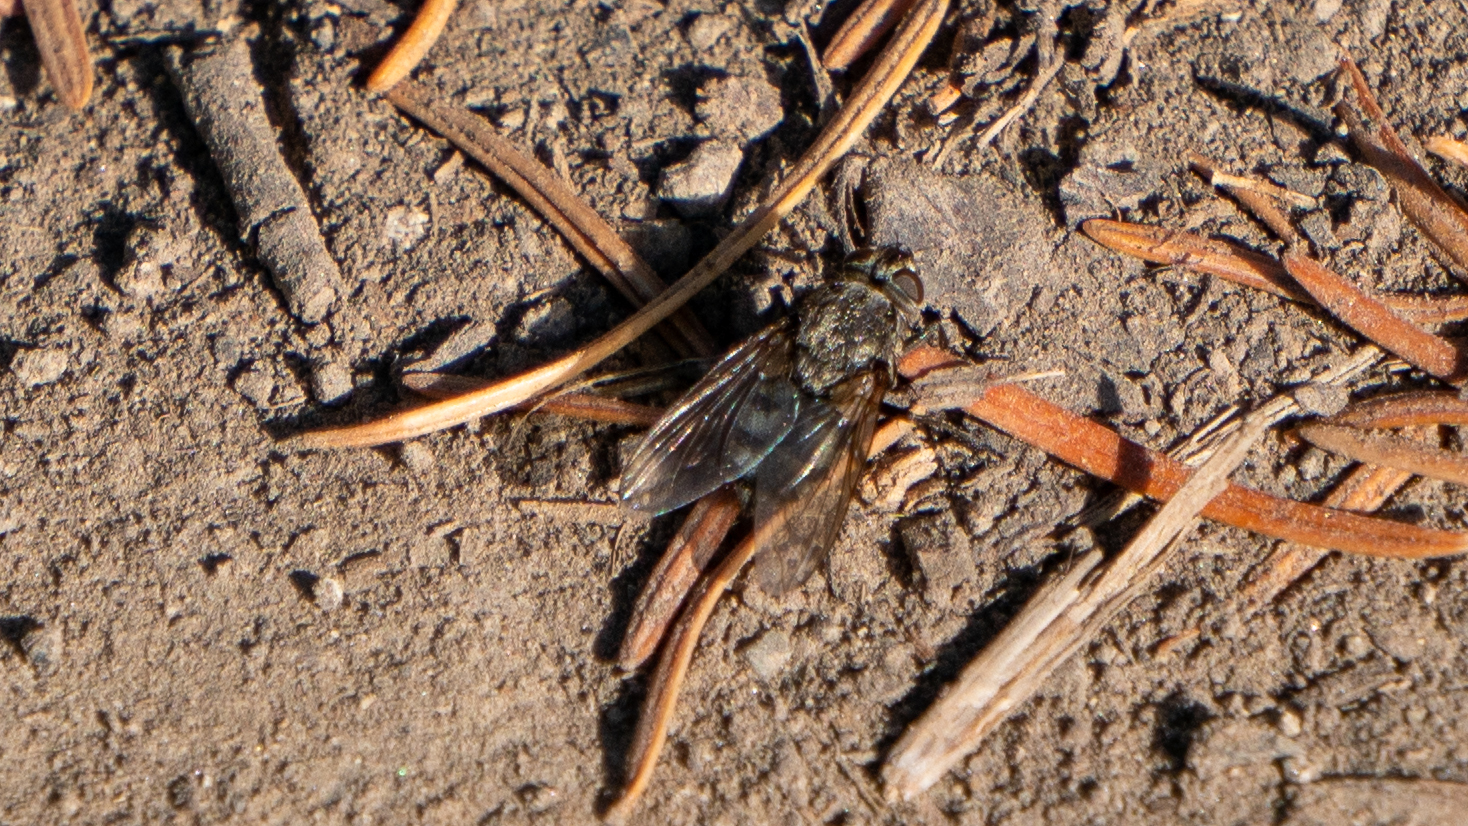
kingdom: Animalia
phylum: Arthropoda
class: Insecta
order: Diptera
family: Polleniidae
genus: Pollenia
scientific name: Pollenia vagabunda
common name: Vagabund cluster fly
